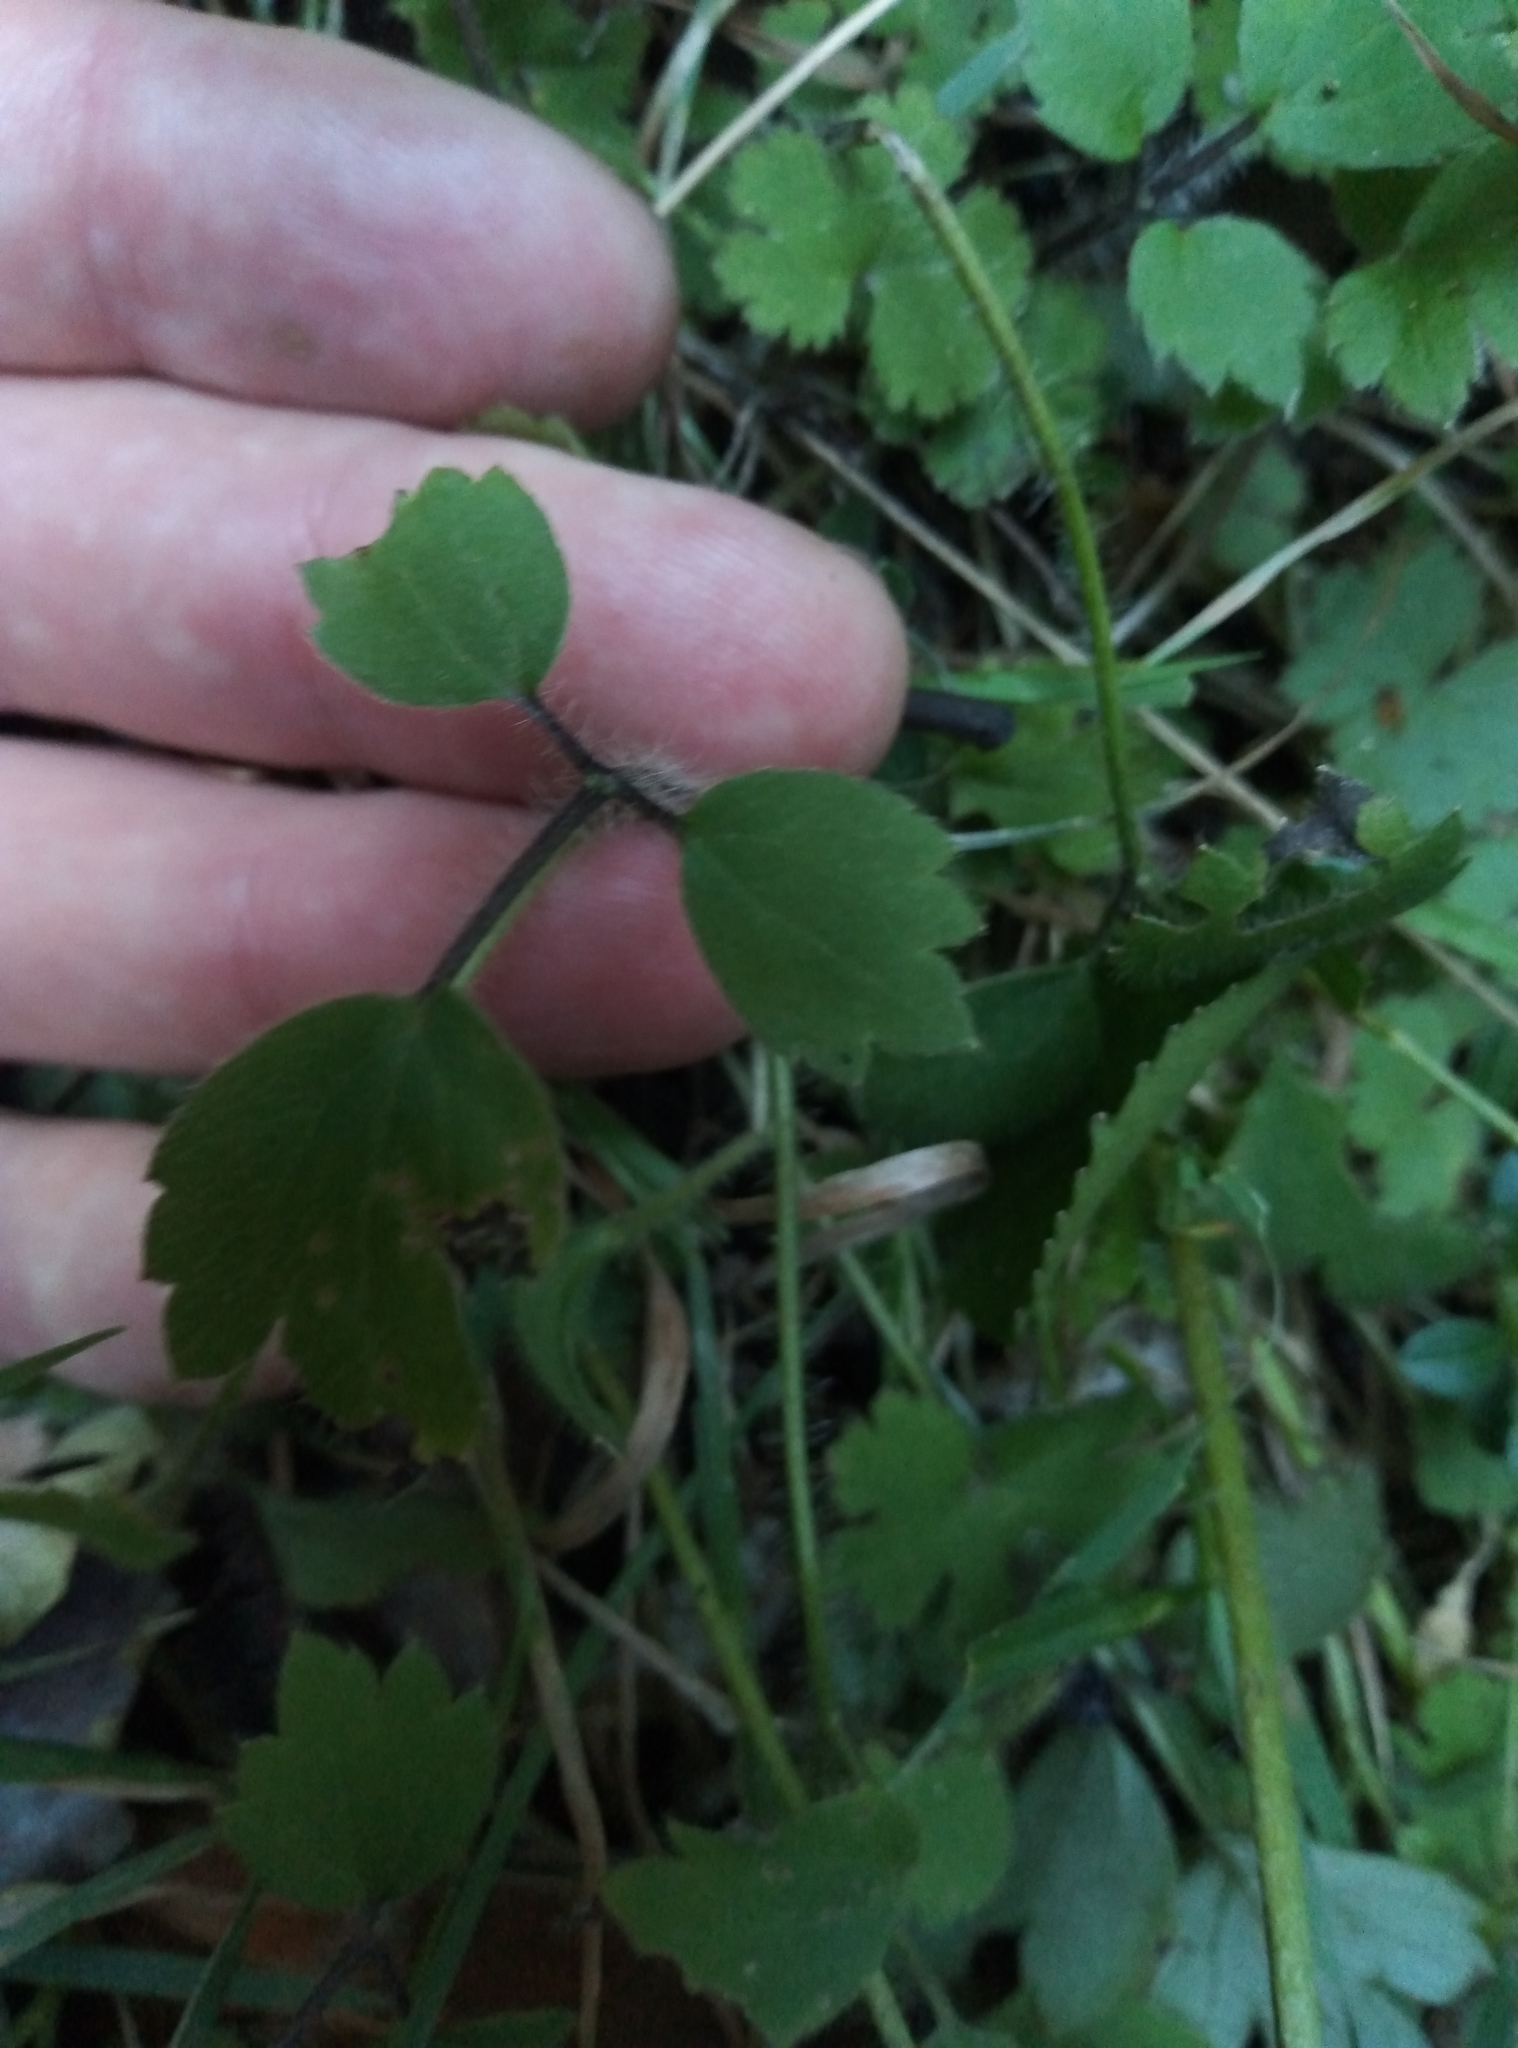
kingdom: Plantae
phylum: Tracheophyta
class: Magnoliopsida
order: Ranunculales
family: Ranunculaceae
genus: Ranunculus
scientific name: Ranunculus reflexus
